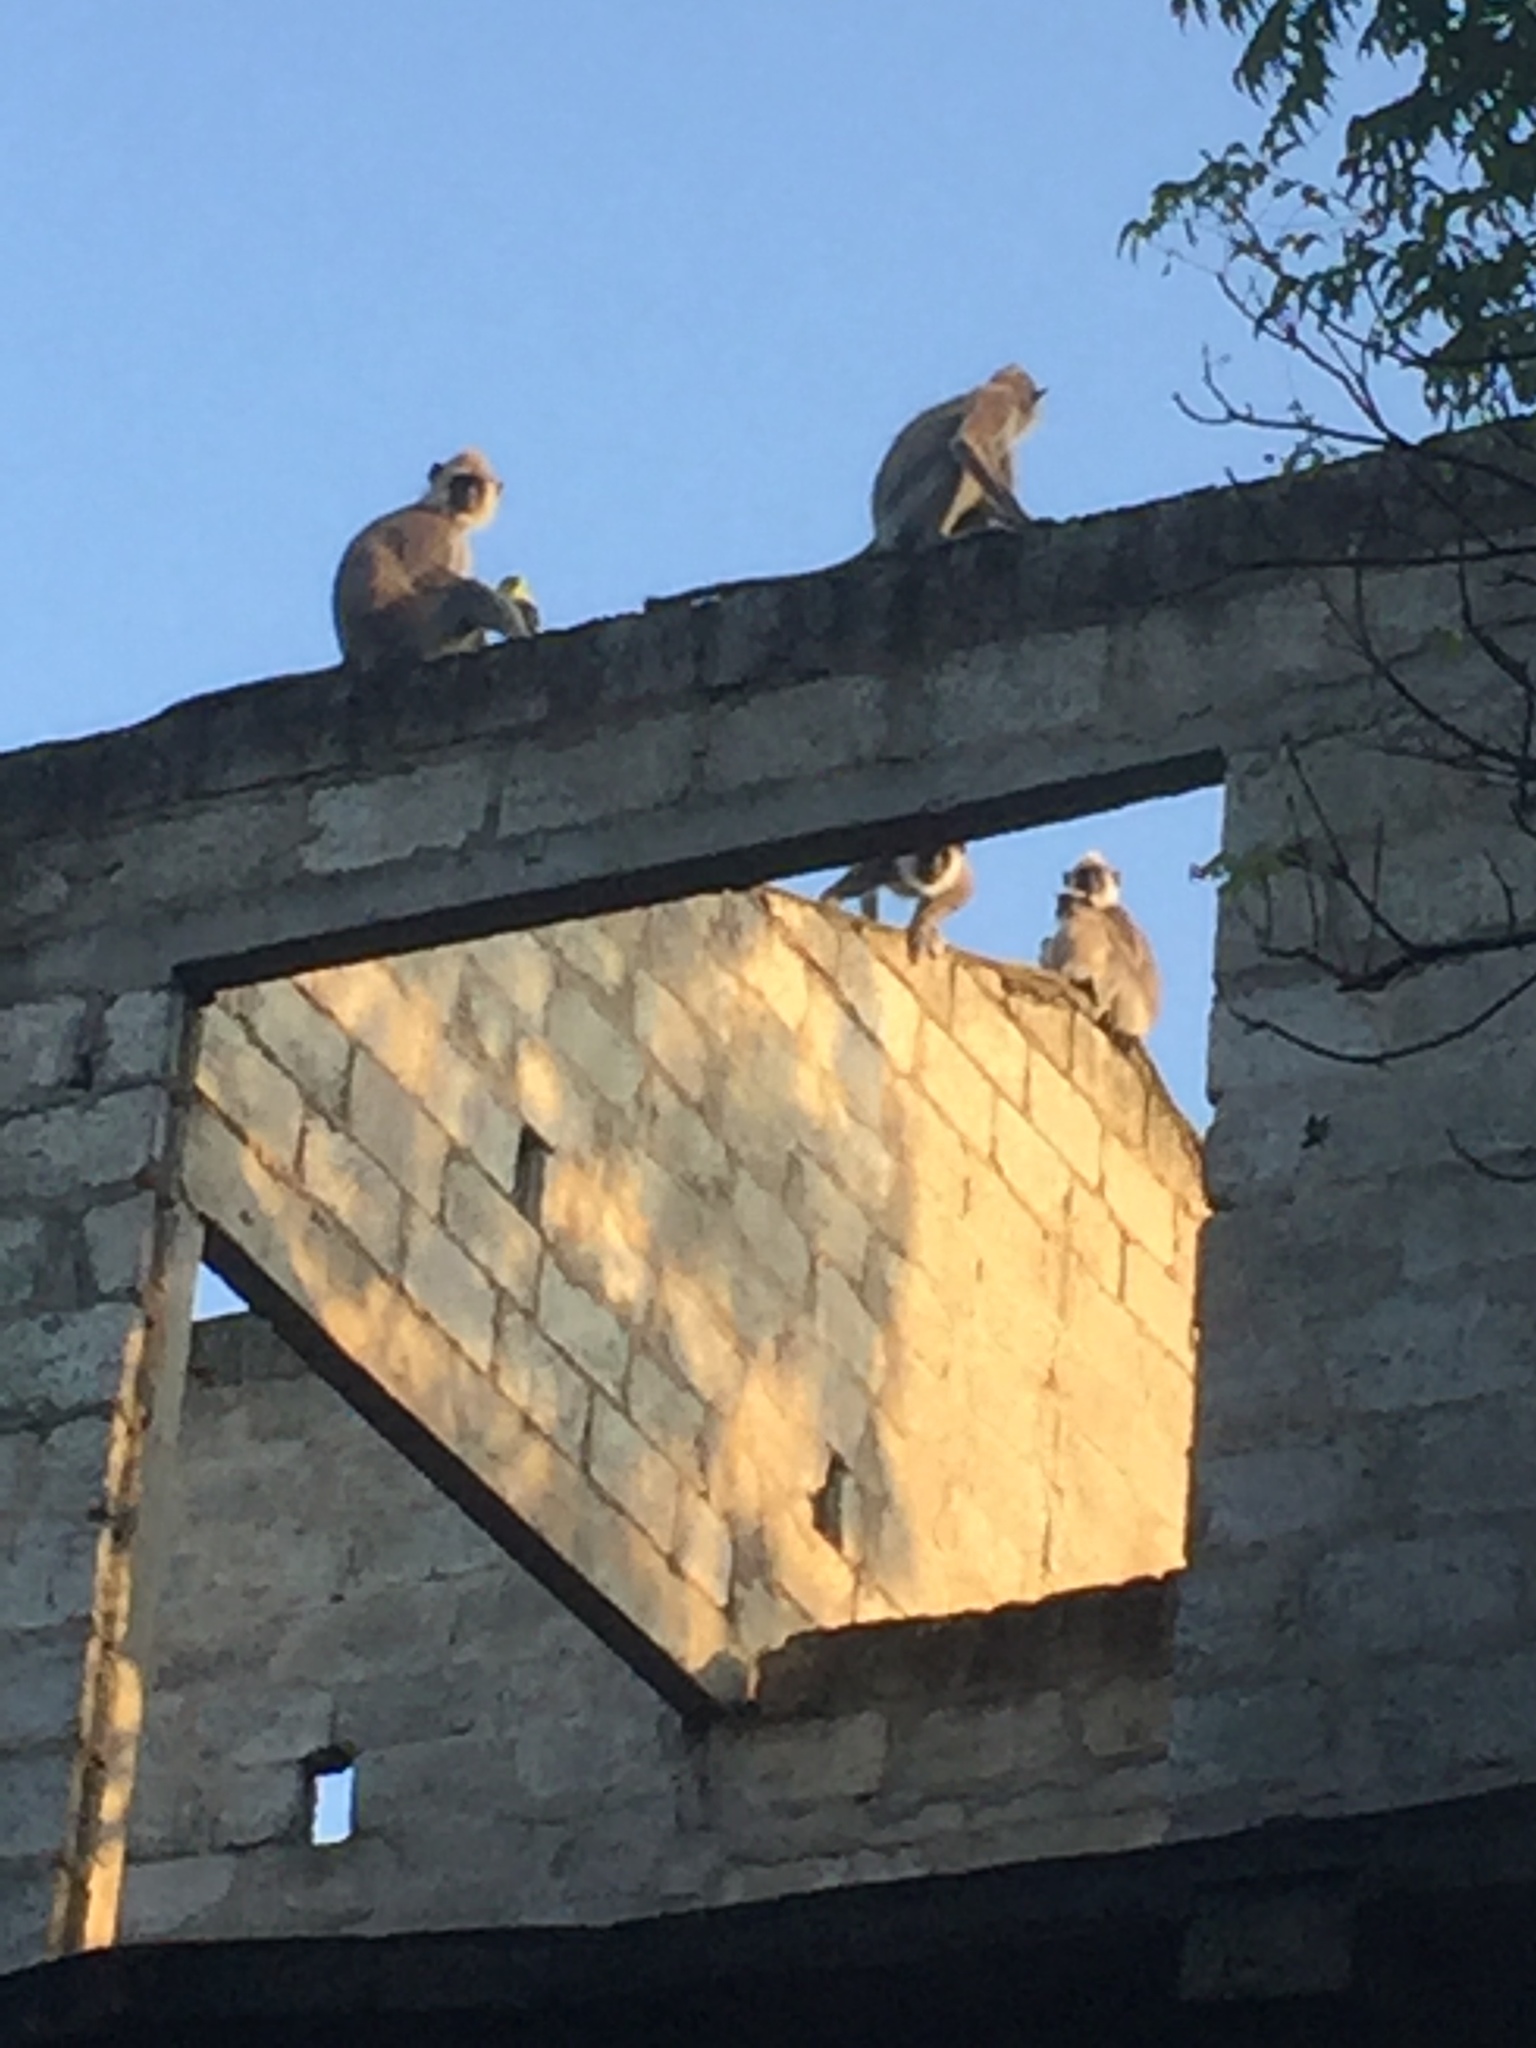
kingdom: Animalia
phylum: Chordata
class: Mammalia
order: Primates
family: Cercopithecidae
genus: Semnopithecus
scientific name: Semnopithecus priam
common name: Tufted gray langur
